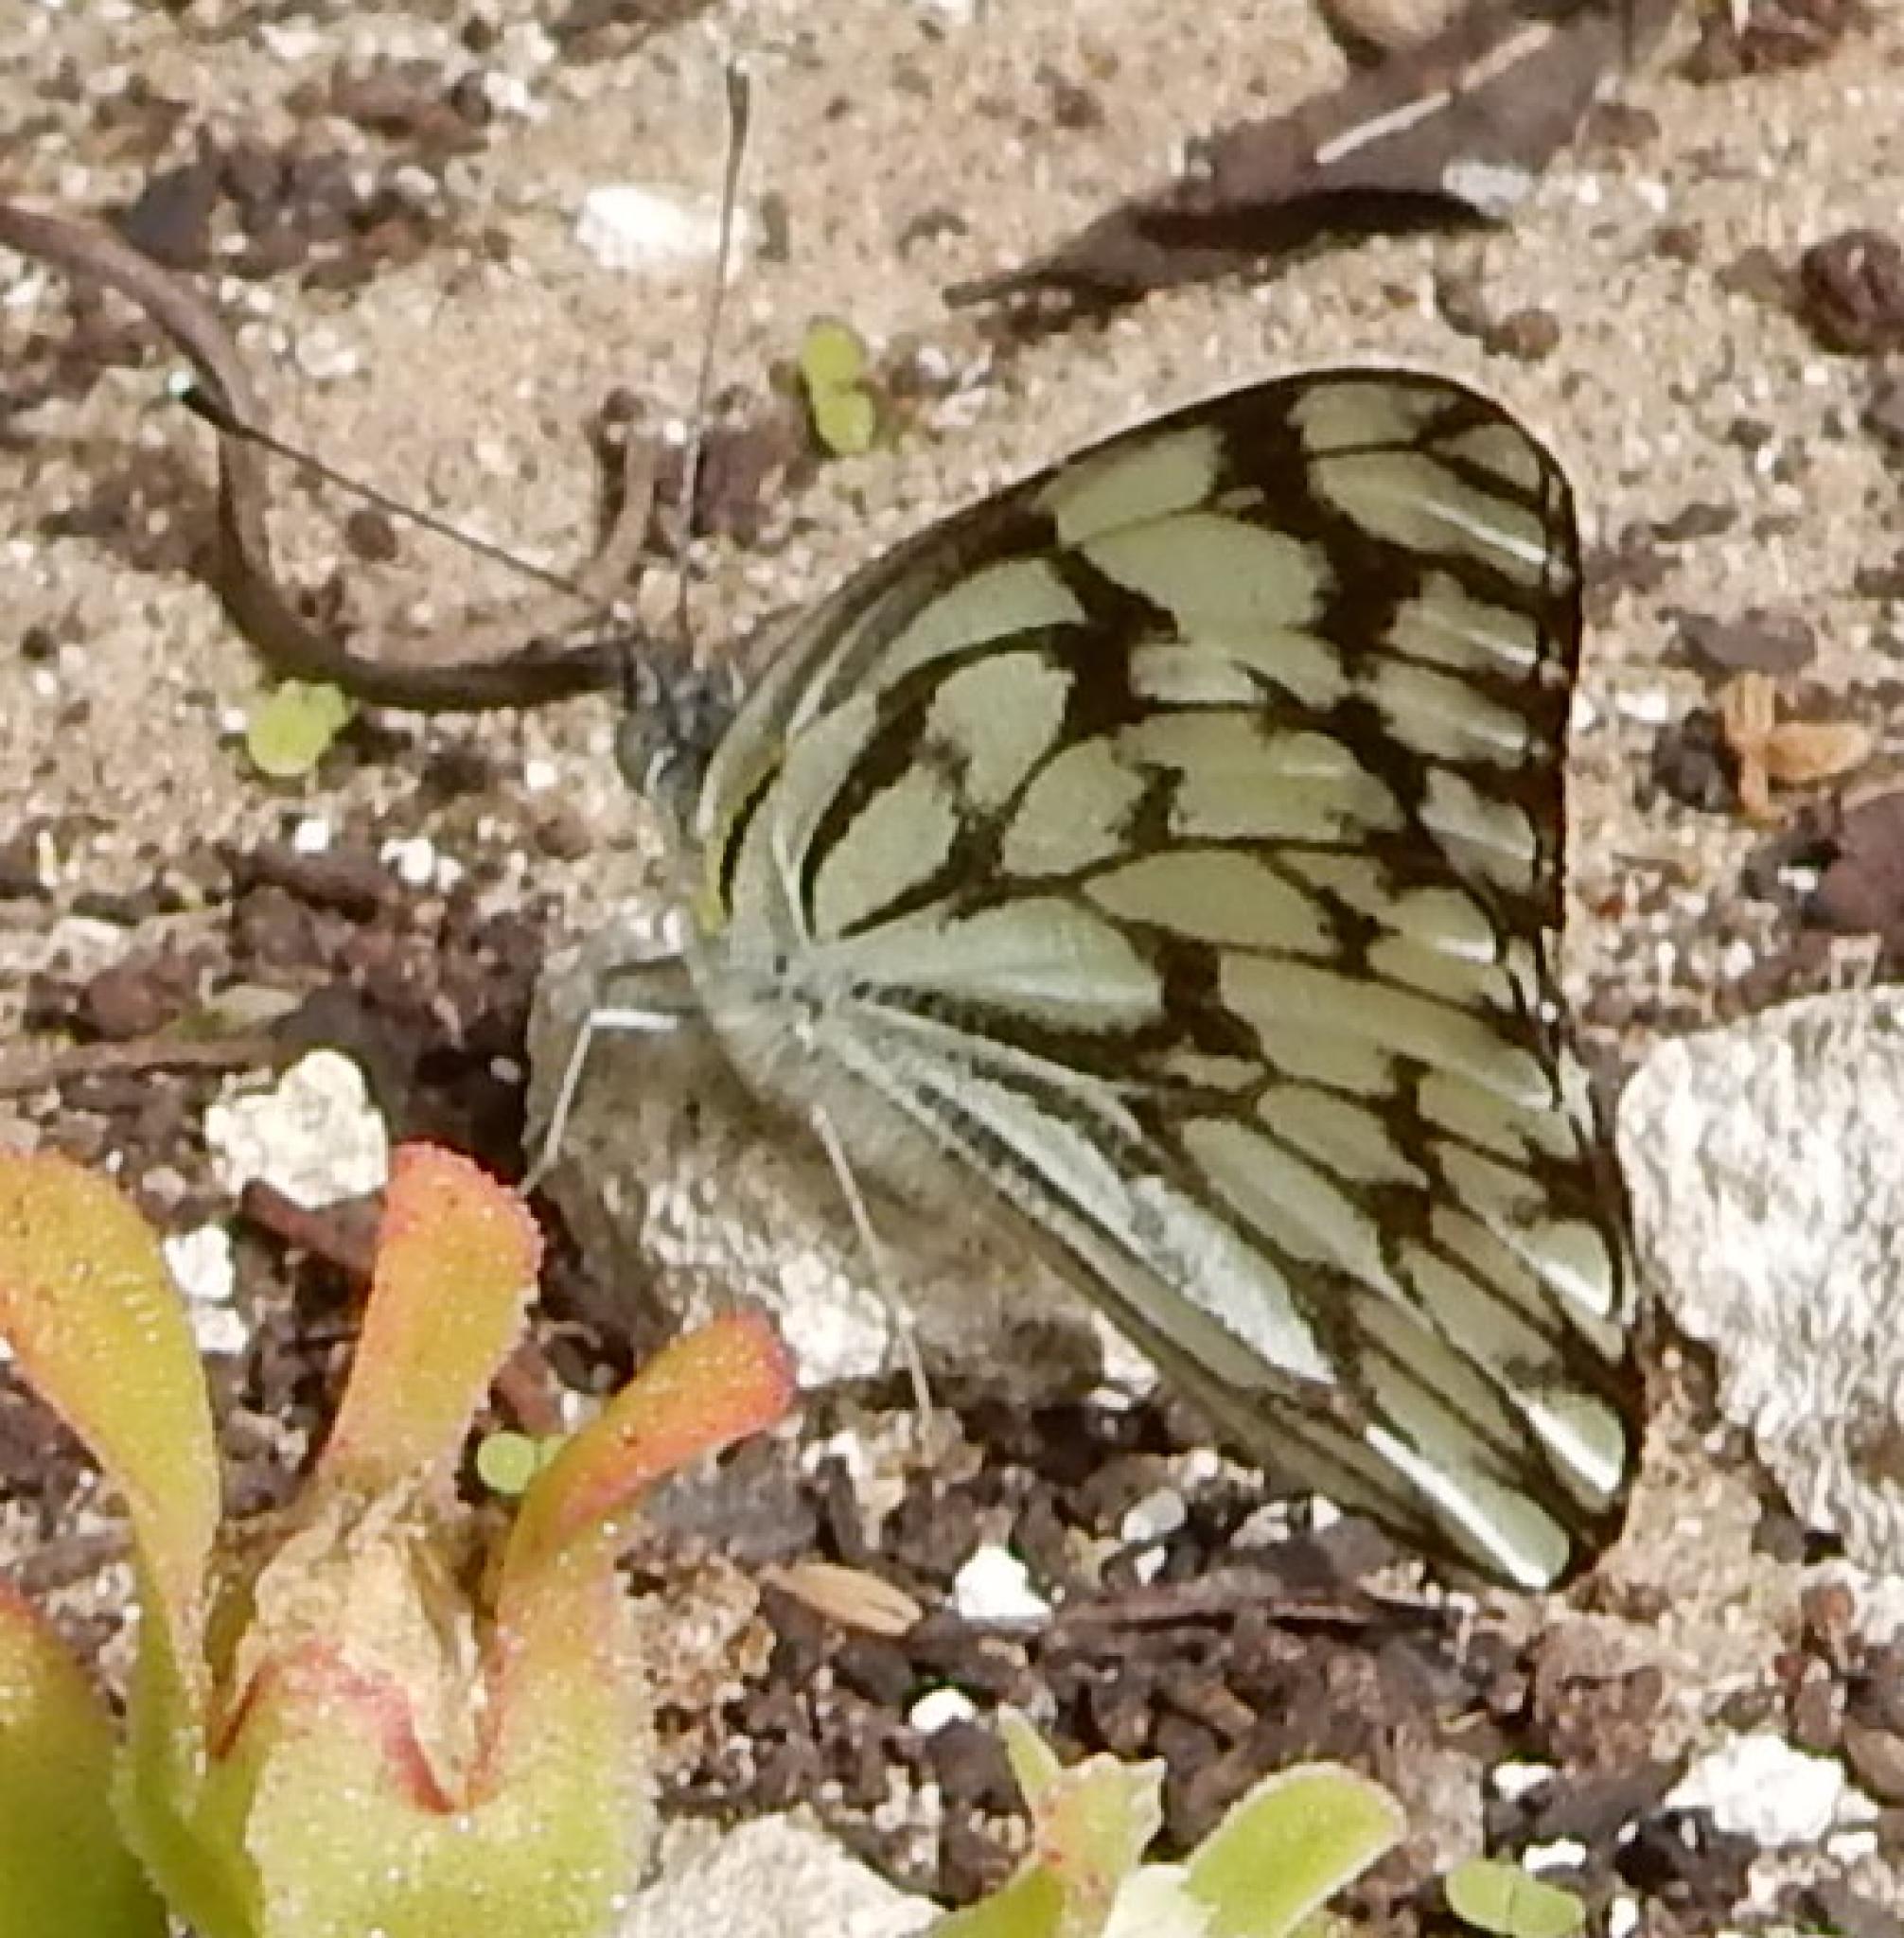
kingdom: Animalia
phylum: Arthropoda
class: Insecta
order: Lepidoptera
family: Pieridae
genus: Belenois
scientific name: Belenois gidica
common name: Pointed caper white
